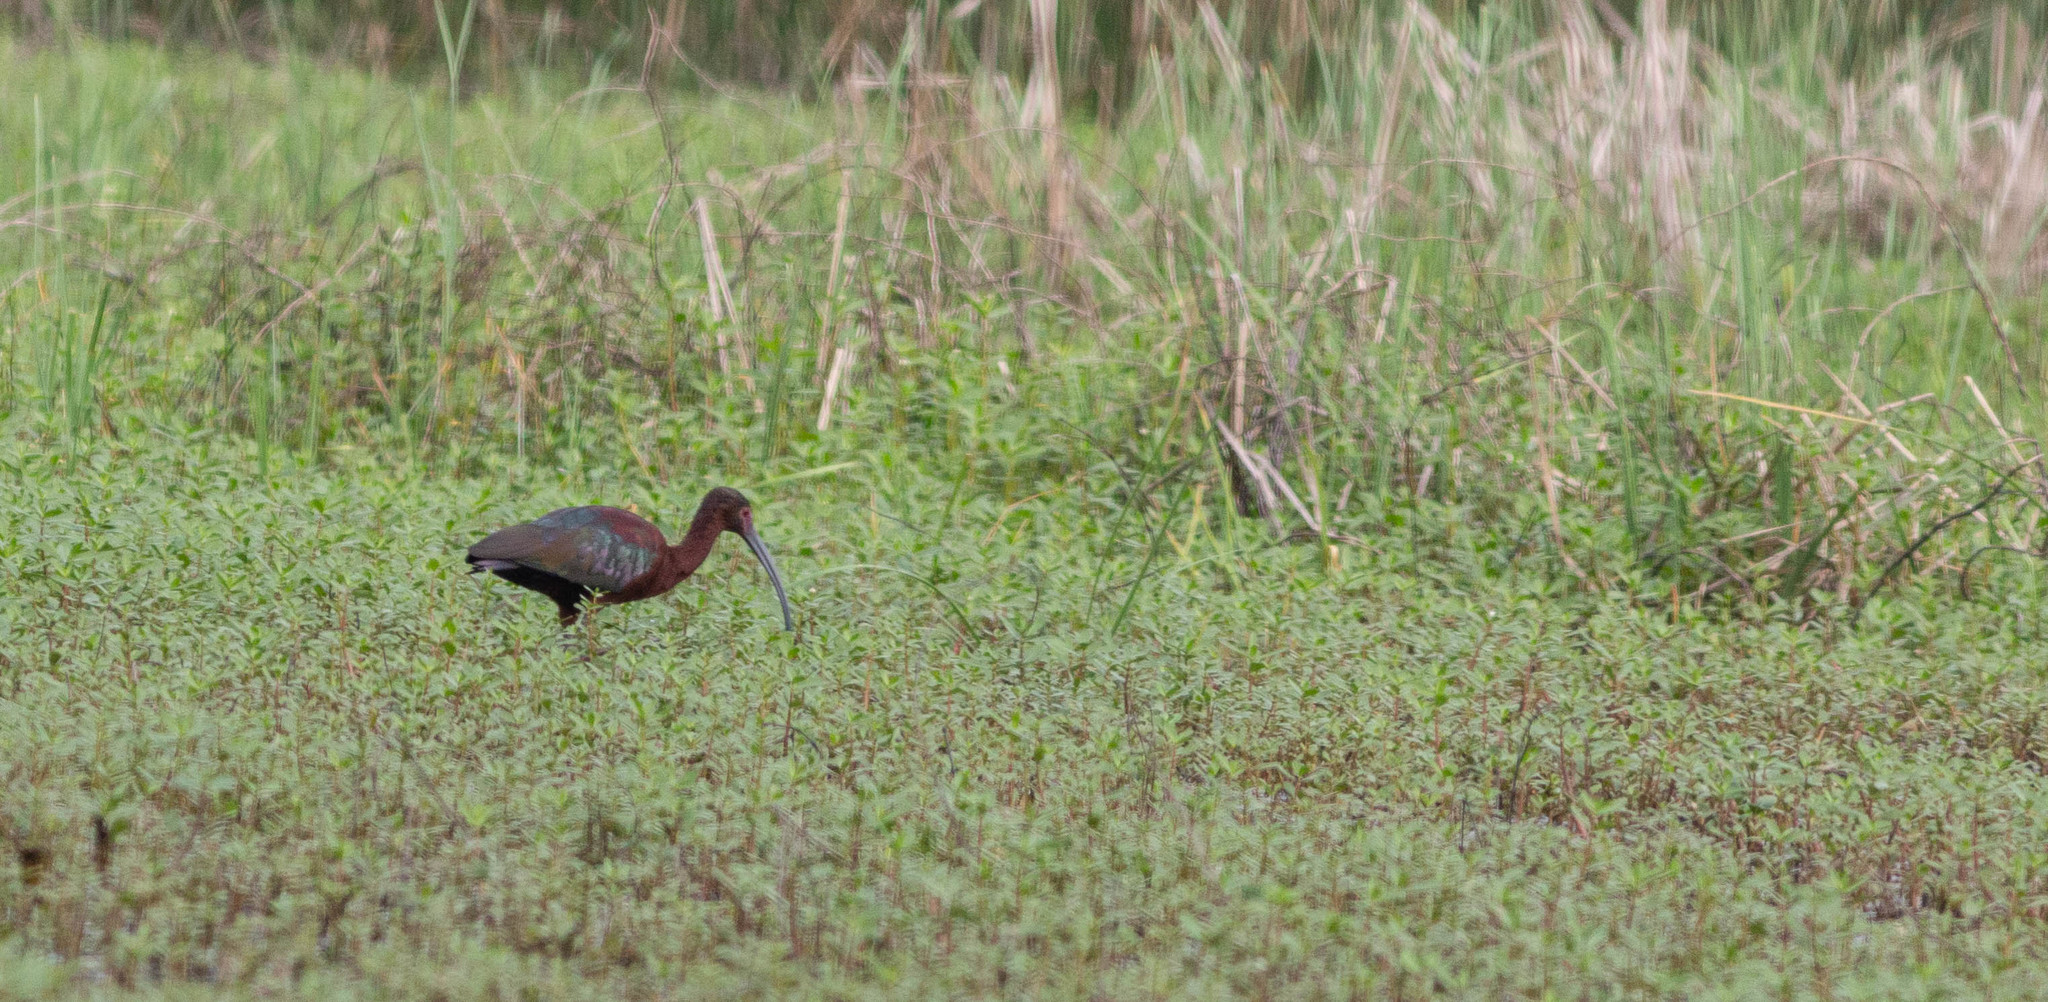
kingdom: Animalia
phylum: Chordata
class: Aves
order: Pelecaniformes
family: Threskiornithidae
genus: Plegadis
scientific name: Plegadis chihi
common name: White-faced ibis
